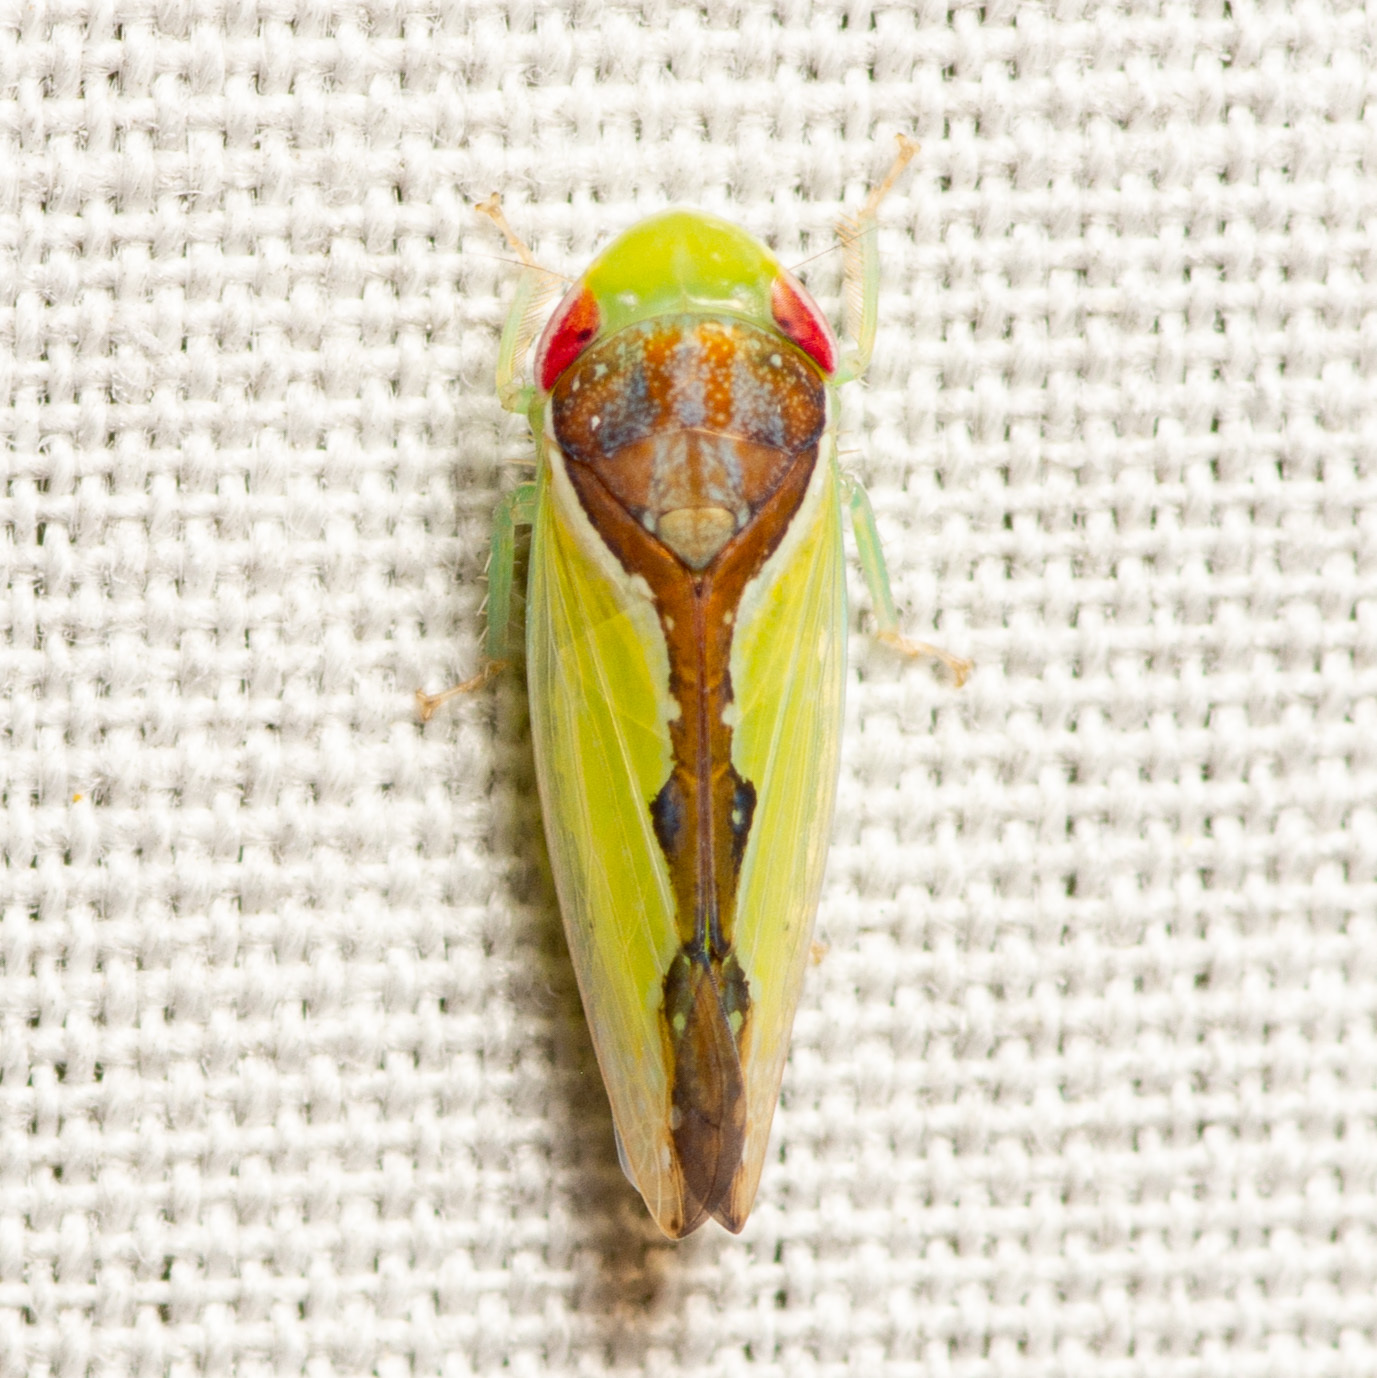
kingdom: Animalia
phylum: Arthropoda
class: Insecta
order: Hemiptera
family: Cicadellidae
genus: Omansobara ing
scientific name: Omansobara ing Omansobara palliolata
